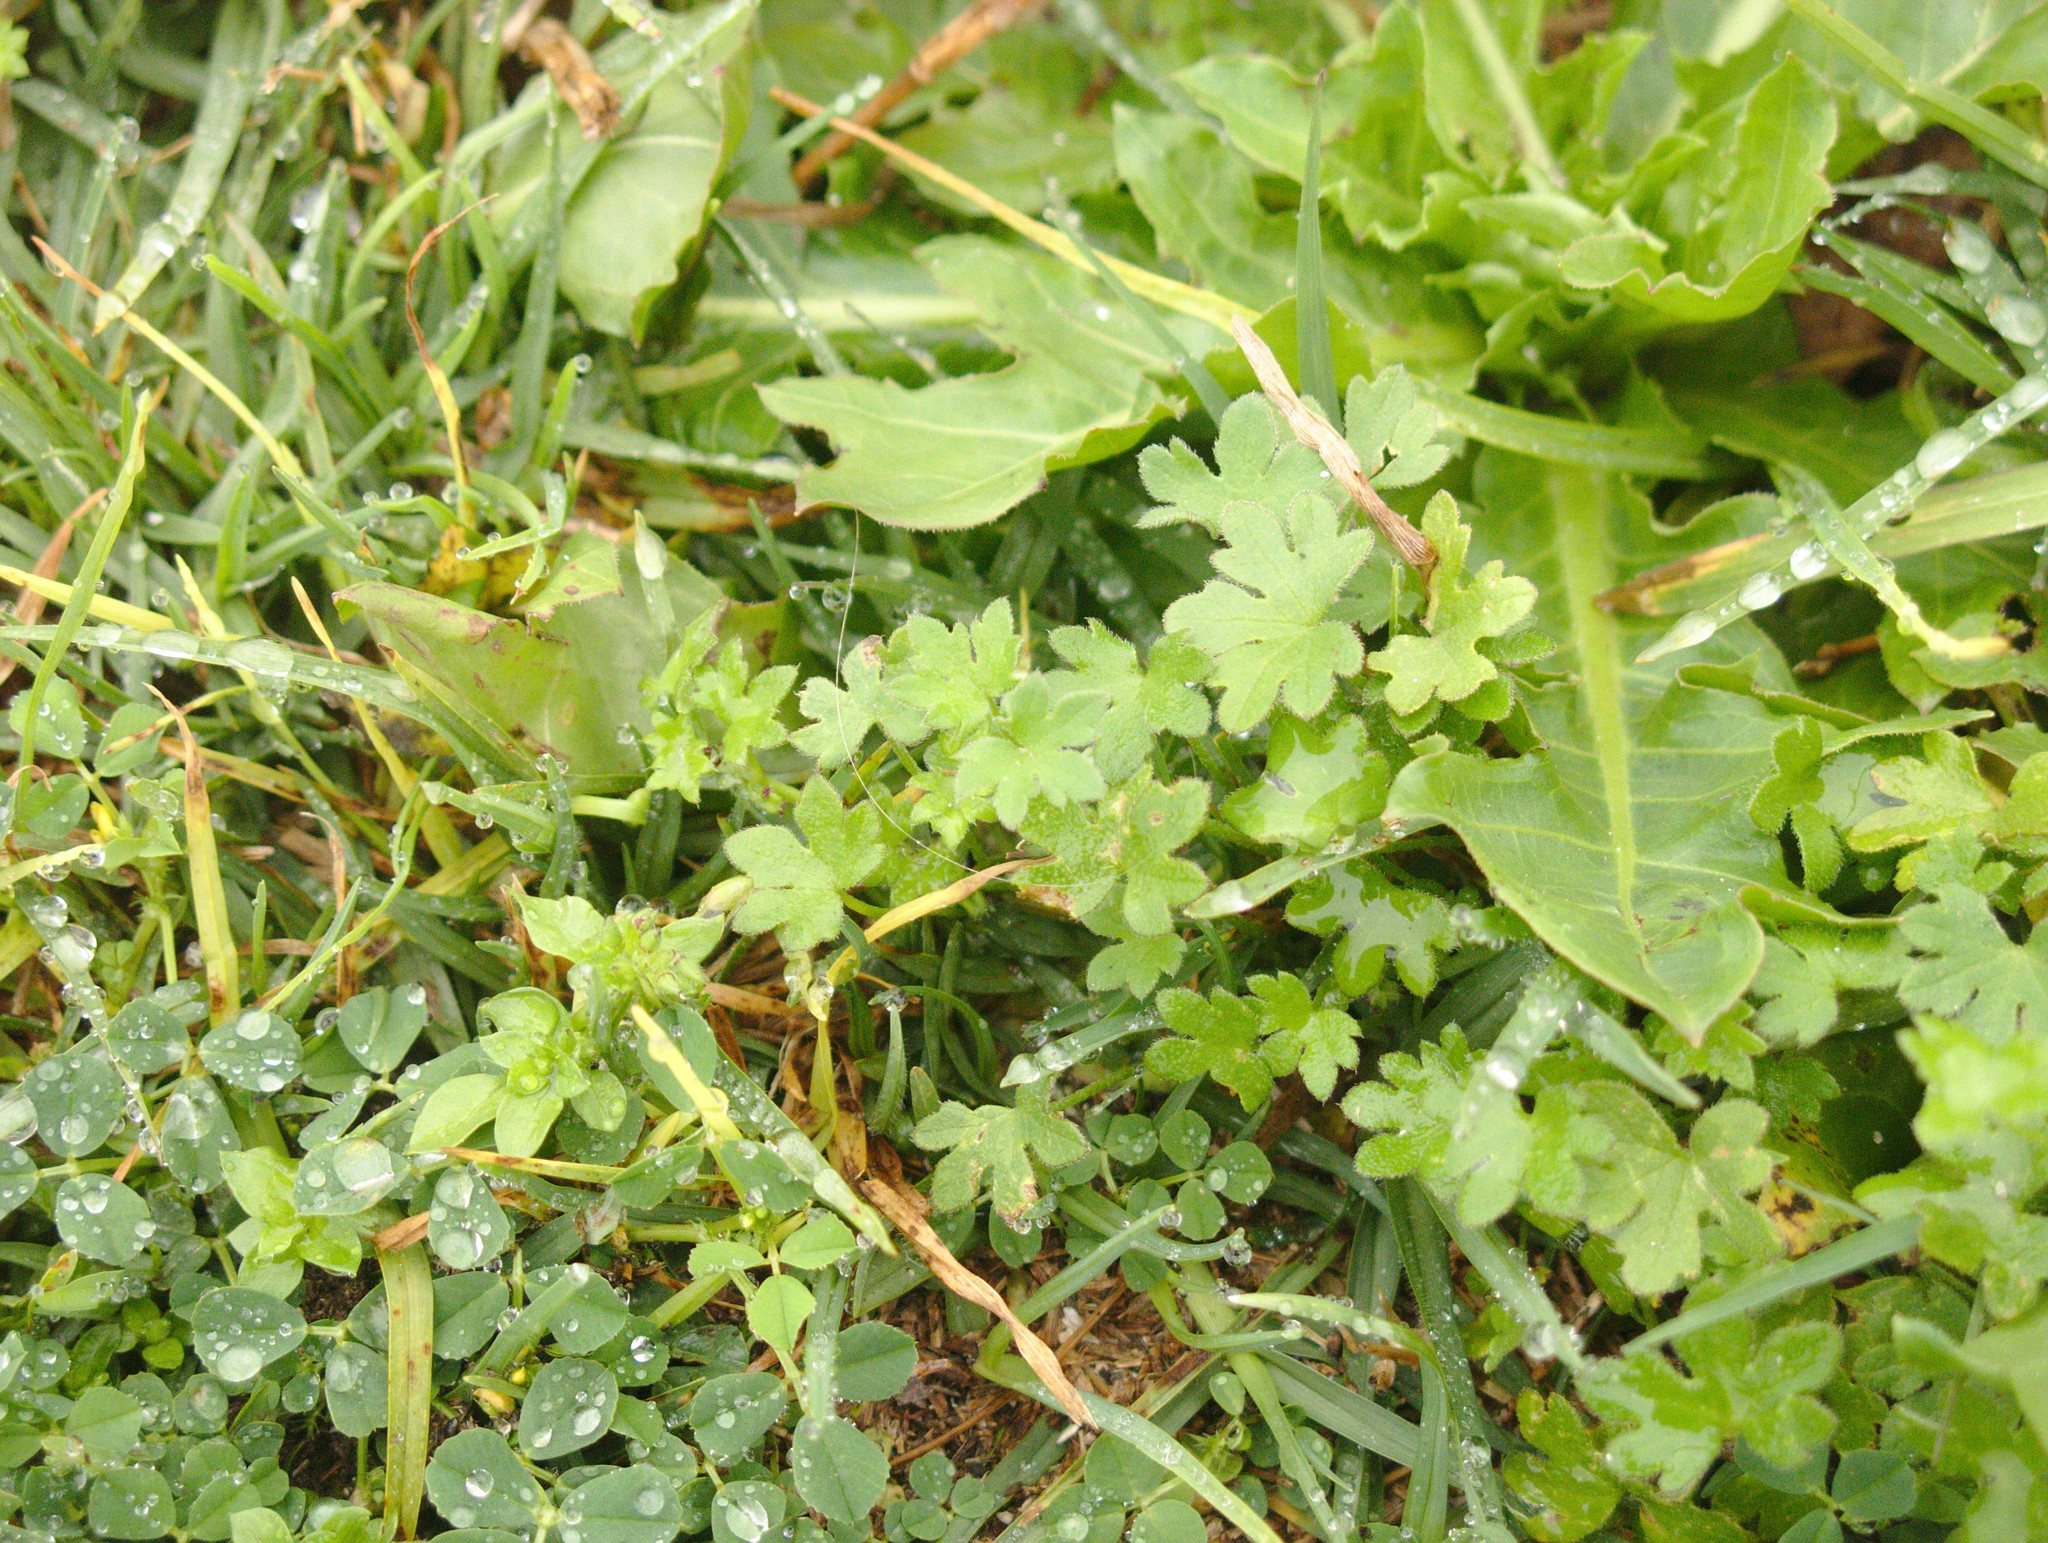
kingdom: Plantae
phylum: Tracheophyta
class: Magnoliopsida
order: Apiales
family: Apiaceae
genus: Bowlesia
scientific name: Bowlesia incana
